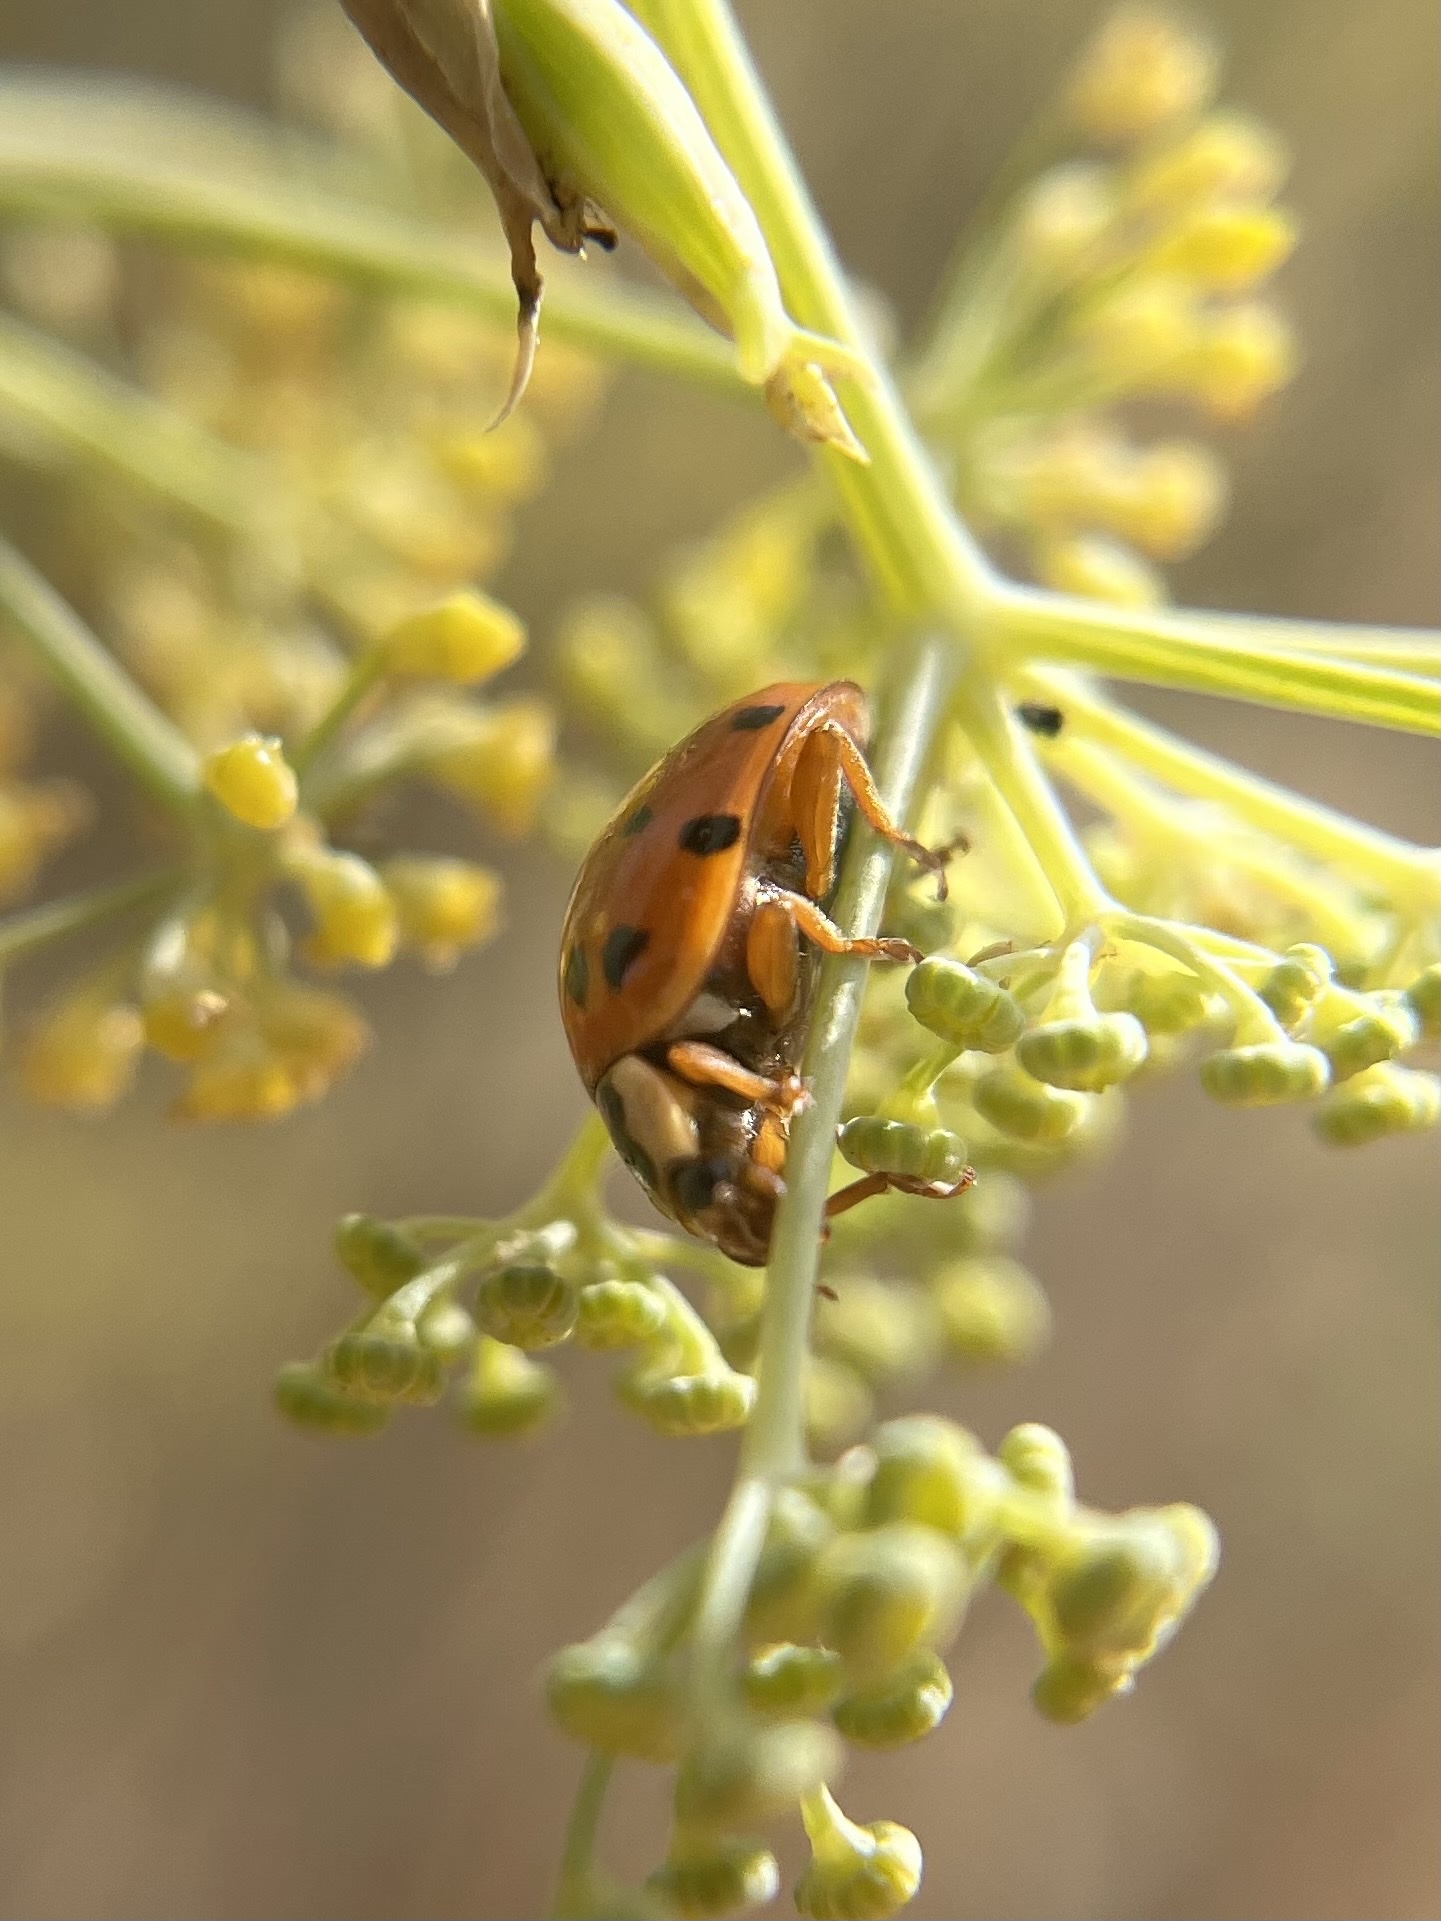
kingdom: Animalia
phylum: Arthropoda
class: Insecta
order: Coleoptera
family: Coccinellidae
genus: Harmonia
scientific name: Harmonia axyridis
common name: Harlequin ladybird
